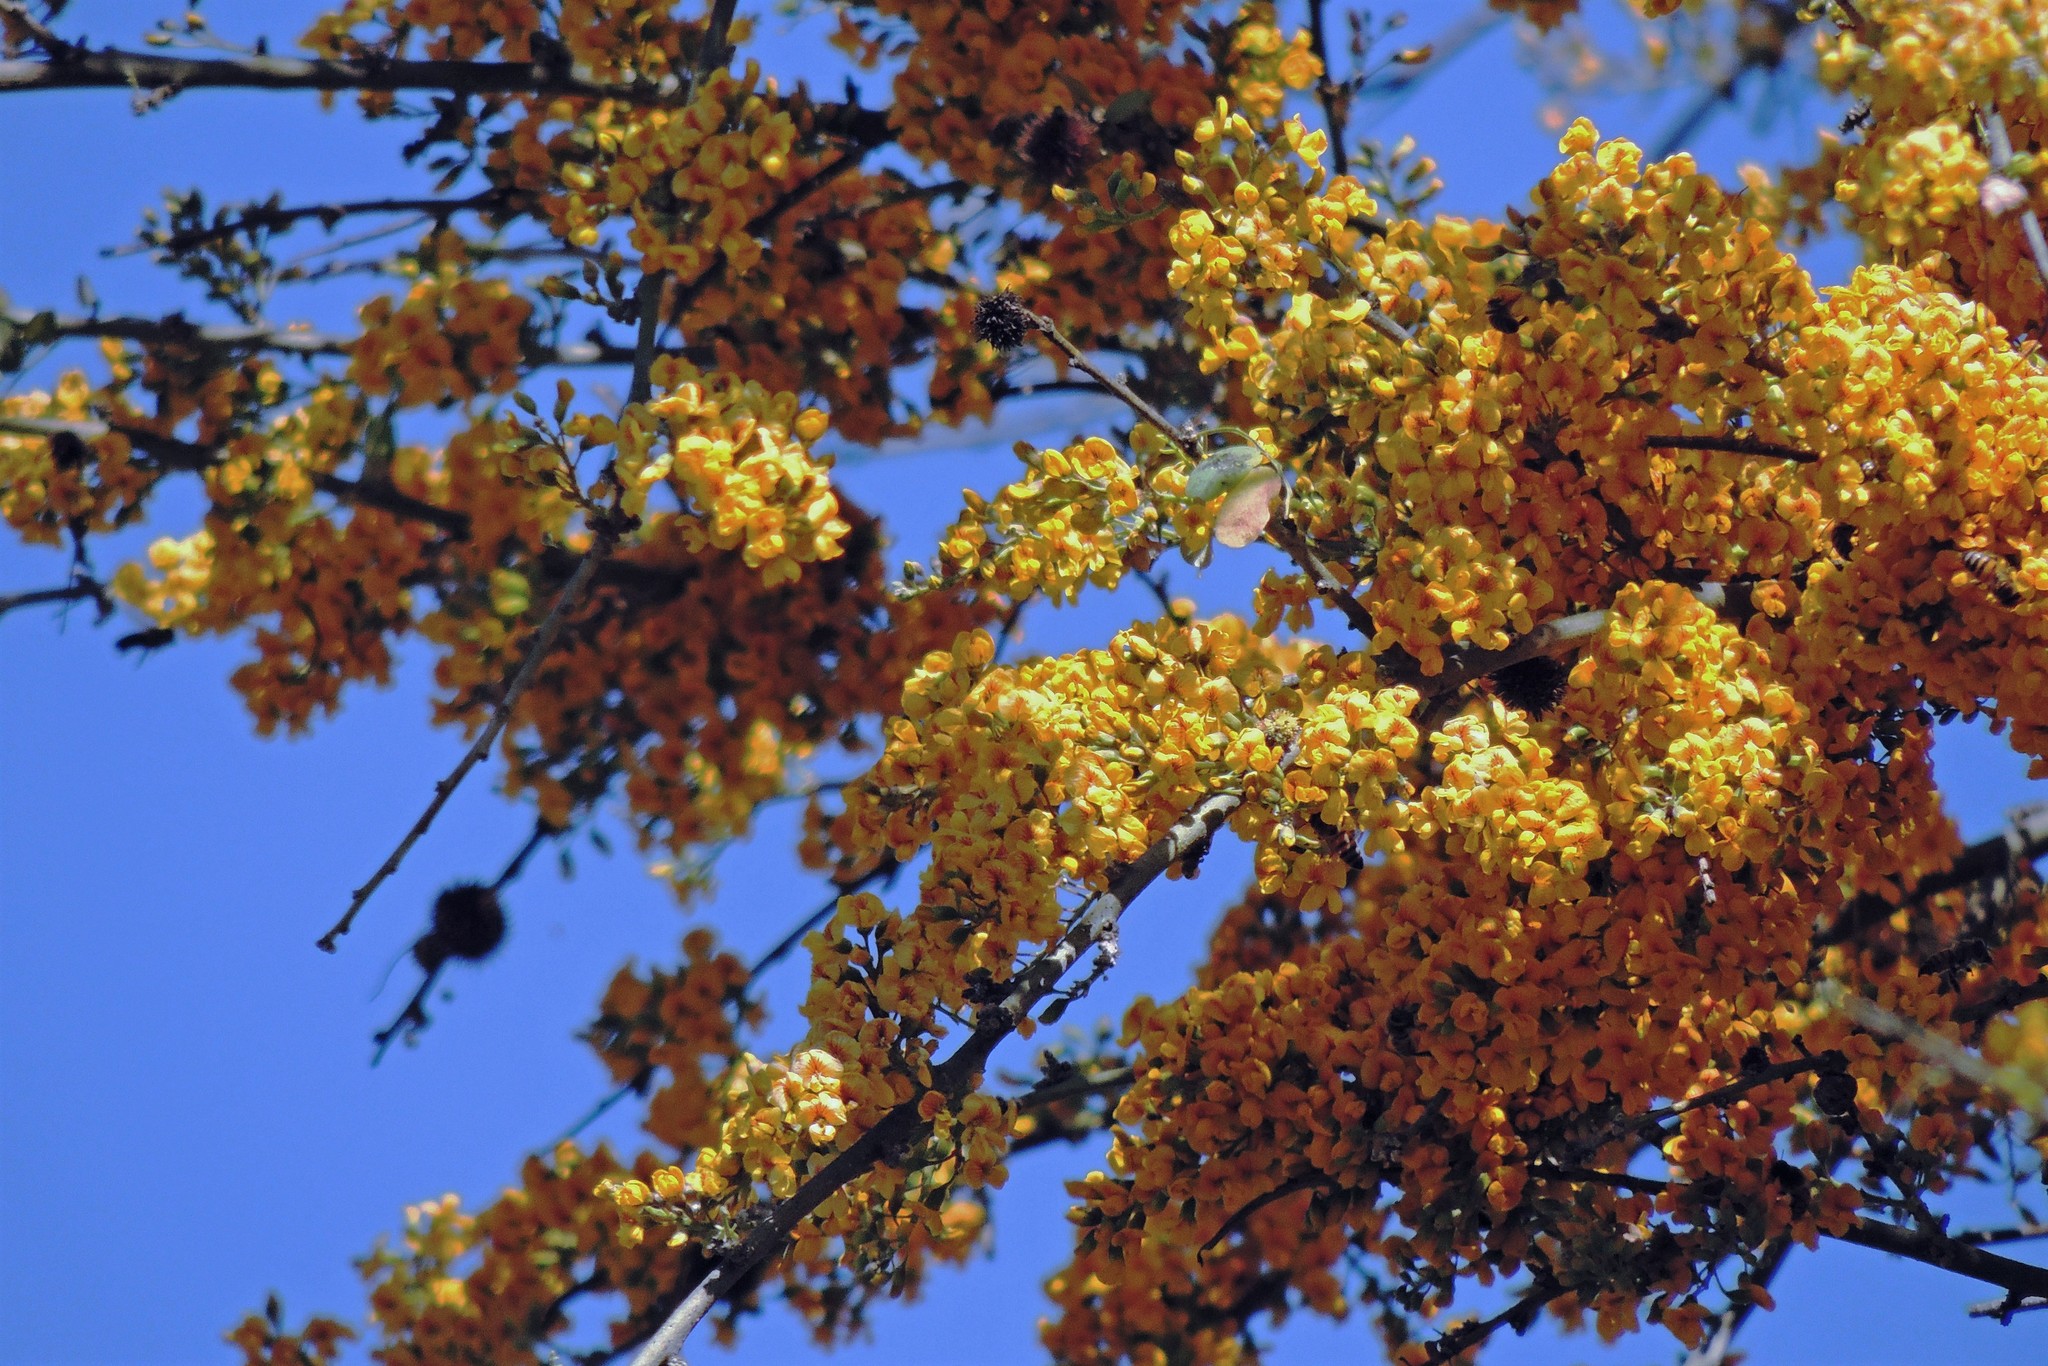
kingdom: Plantae
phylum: Tracheophyta
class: Magnoliopsida
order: Fabales
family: Fabaceae
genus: Geoffroea
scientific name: Geoffroea decorticans
